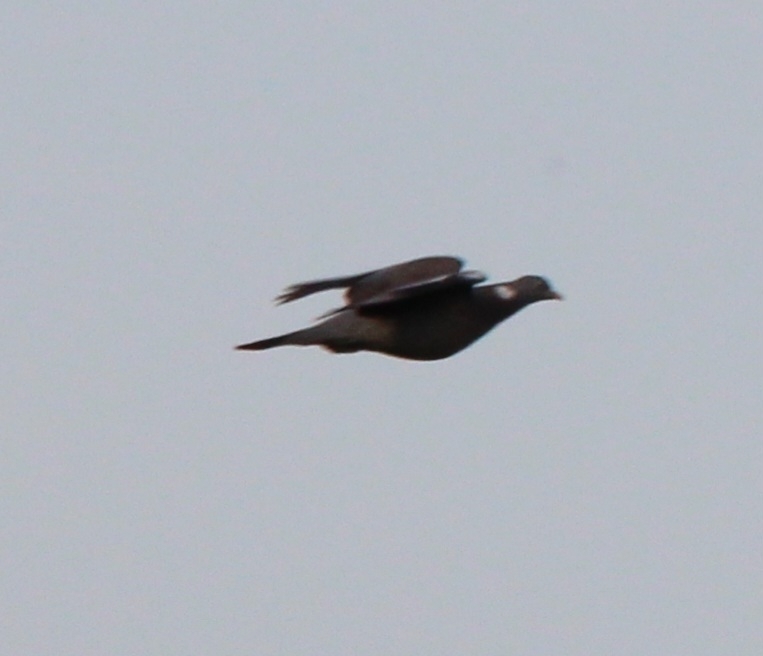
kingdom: Animalia
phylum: Chordata
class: Aves
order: Columbiformes
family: Columbidae
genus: Columba
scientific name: Columba palumbus
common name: Common wood pigeon
